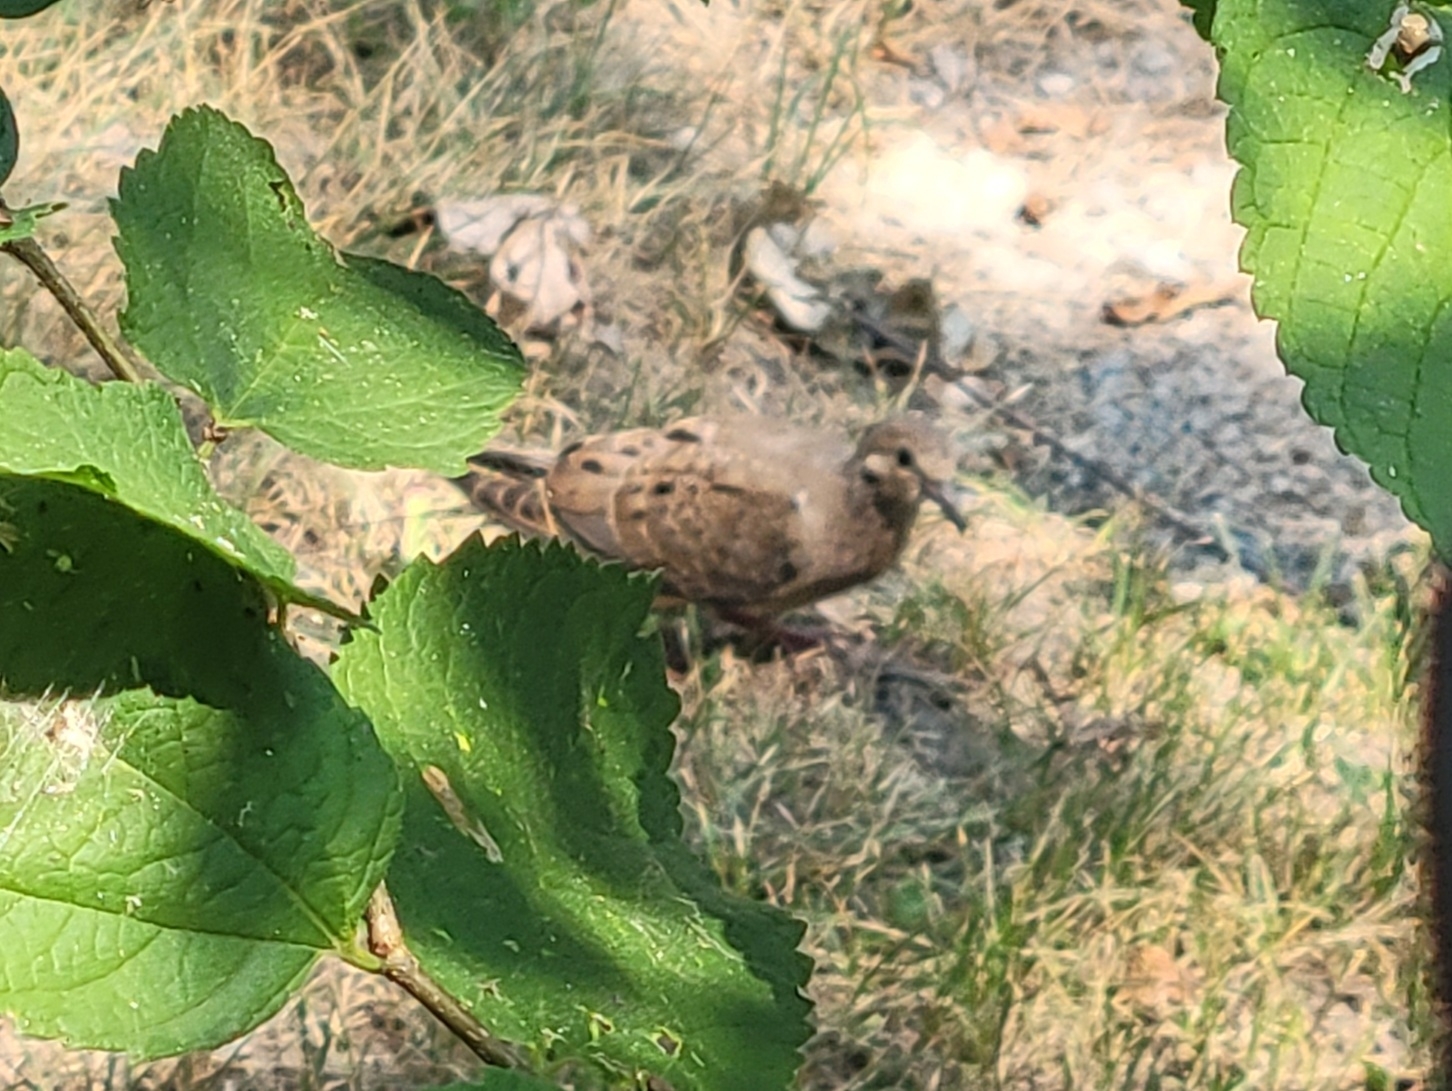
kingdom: Animalia
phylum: Chordata
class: Aves
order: Columbiformes
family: Columbidae
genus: Zenaida
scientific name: Zenaida macroura
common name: Mourning dove
